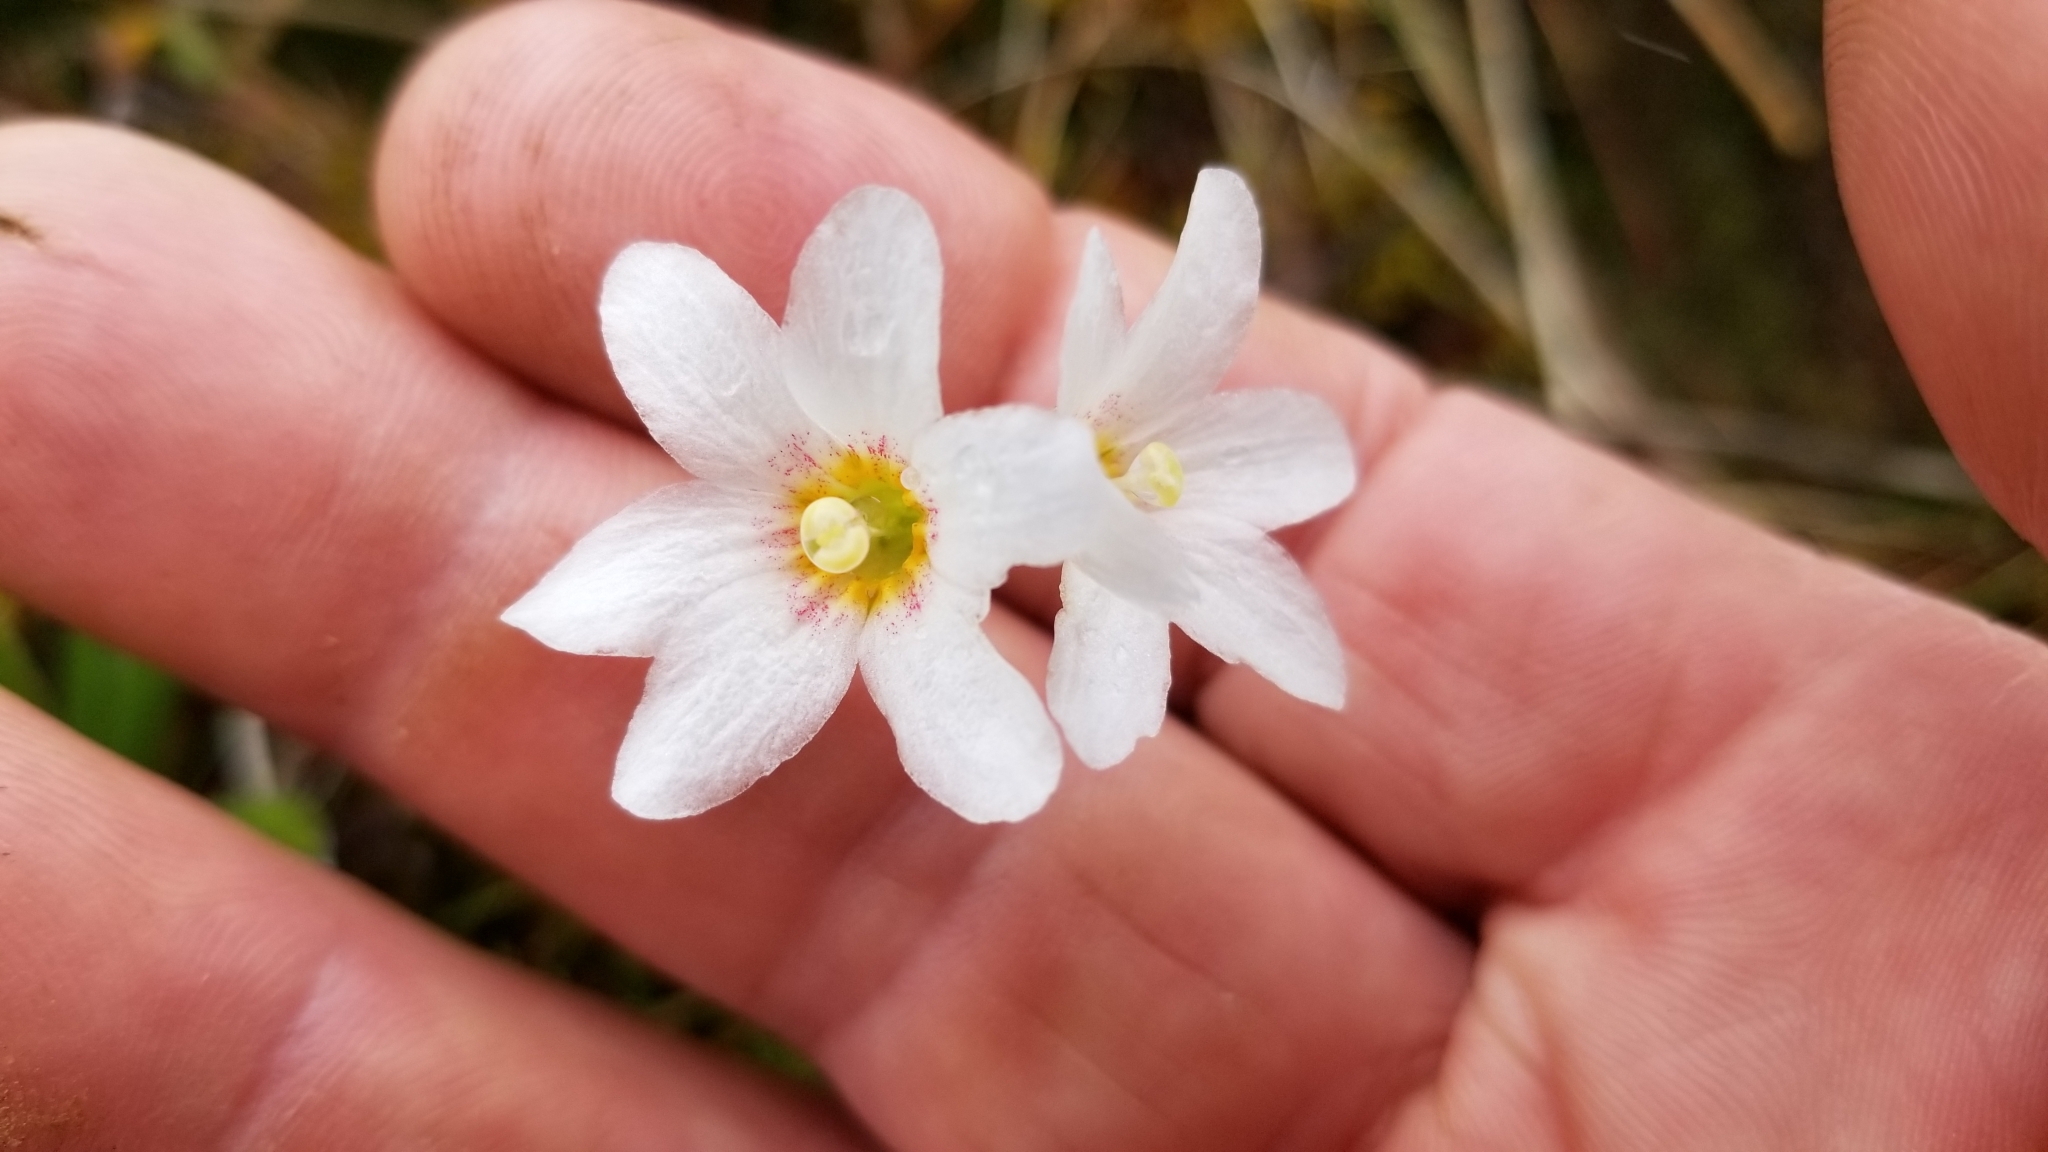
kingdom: Plantae
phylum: Tracheophyta
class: Magnoliopsida
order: Asterales
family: Stylidiaceae
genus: Forstera
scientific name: Forstera mackayi
